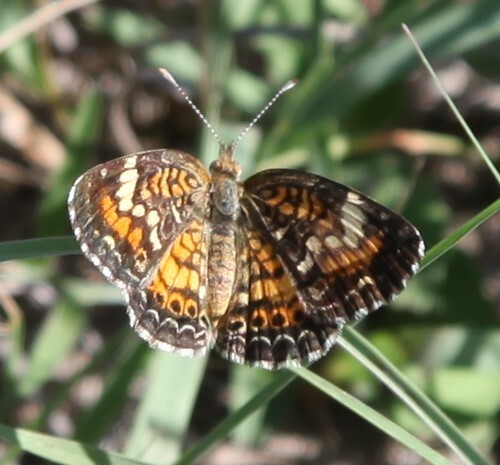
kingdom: Animalia
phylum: Arthropoda
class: Insecta
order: Lepidoptera
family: Nymphalidae
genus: Phyciodes
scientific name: Phyciodes phaon
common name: Phaon crescent
